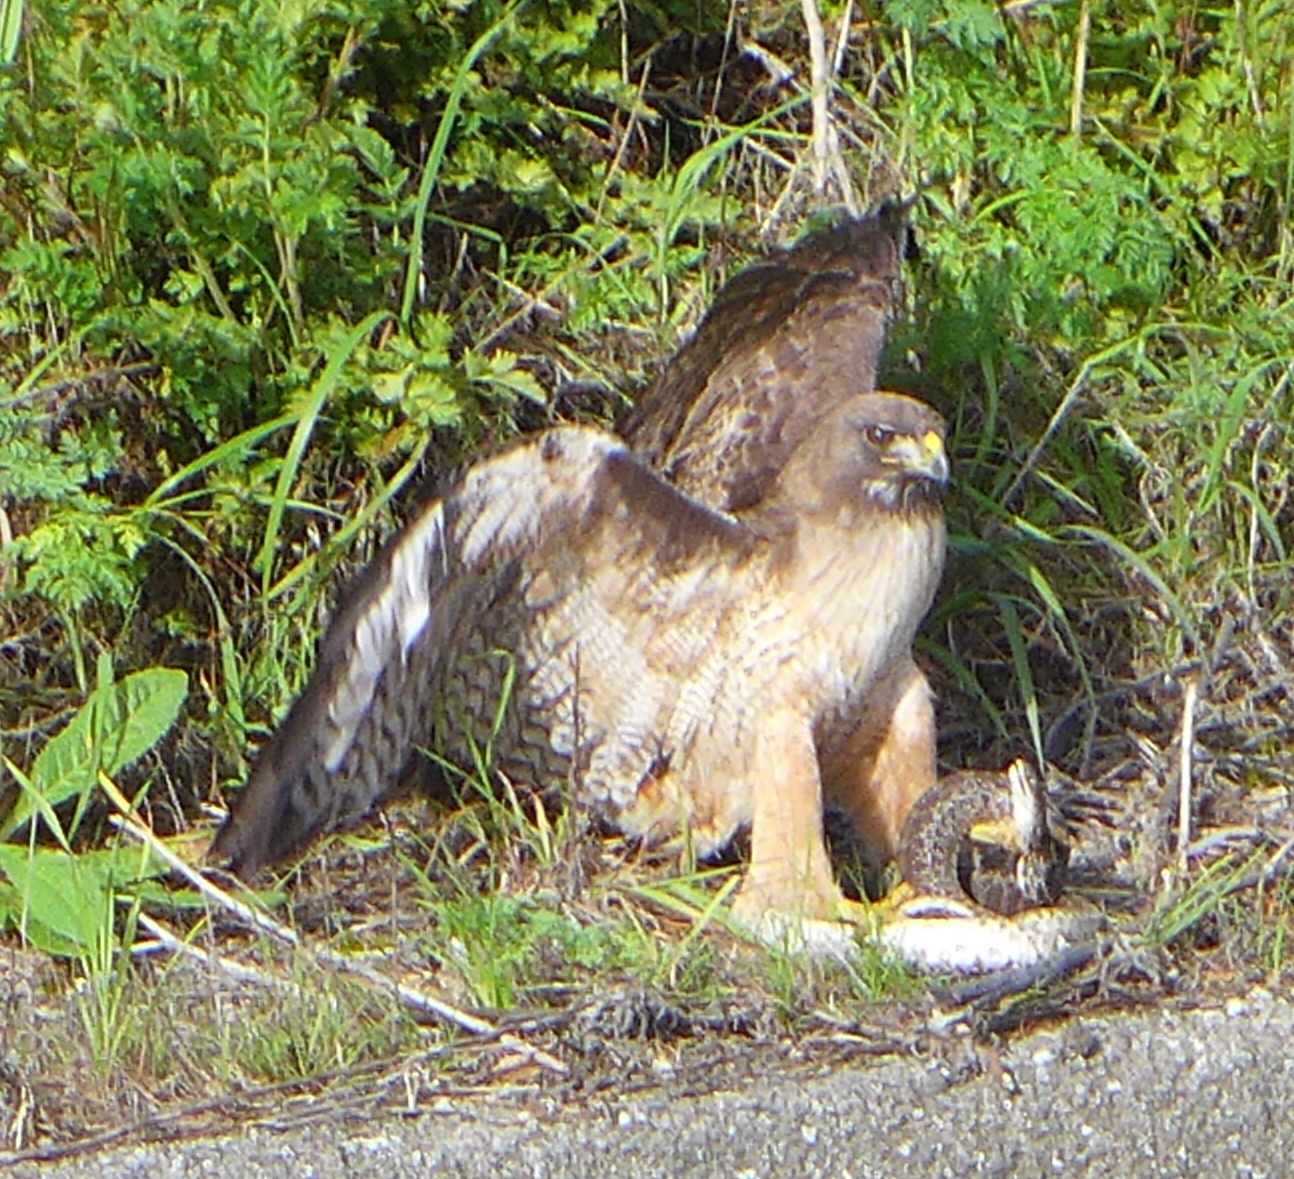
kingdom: Animalia
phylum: Chordata
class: Aves
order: Accipitriformes
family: Accipitridae
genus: Buteo
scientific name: Buteo jamaicensis
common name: Red-tailed hawk
